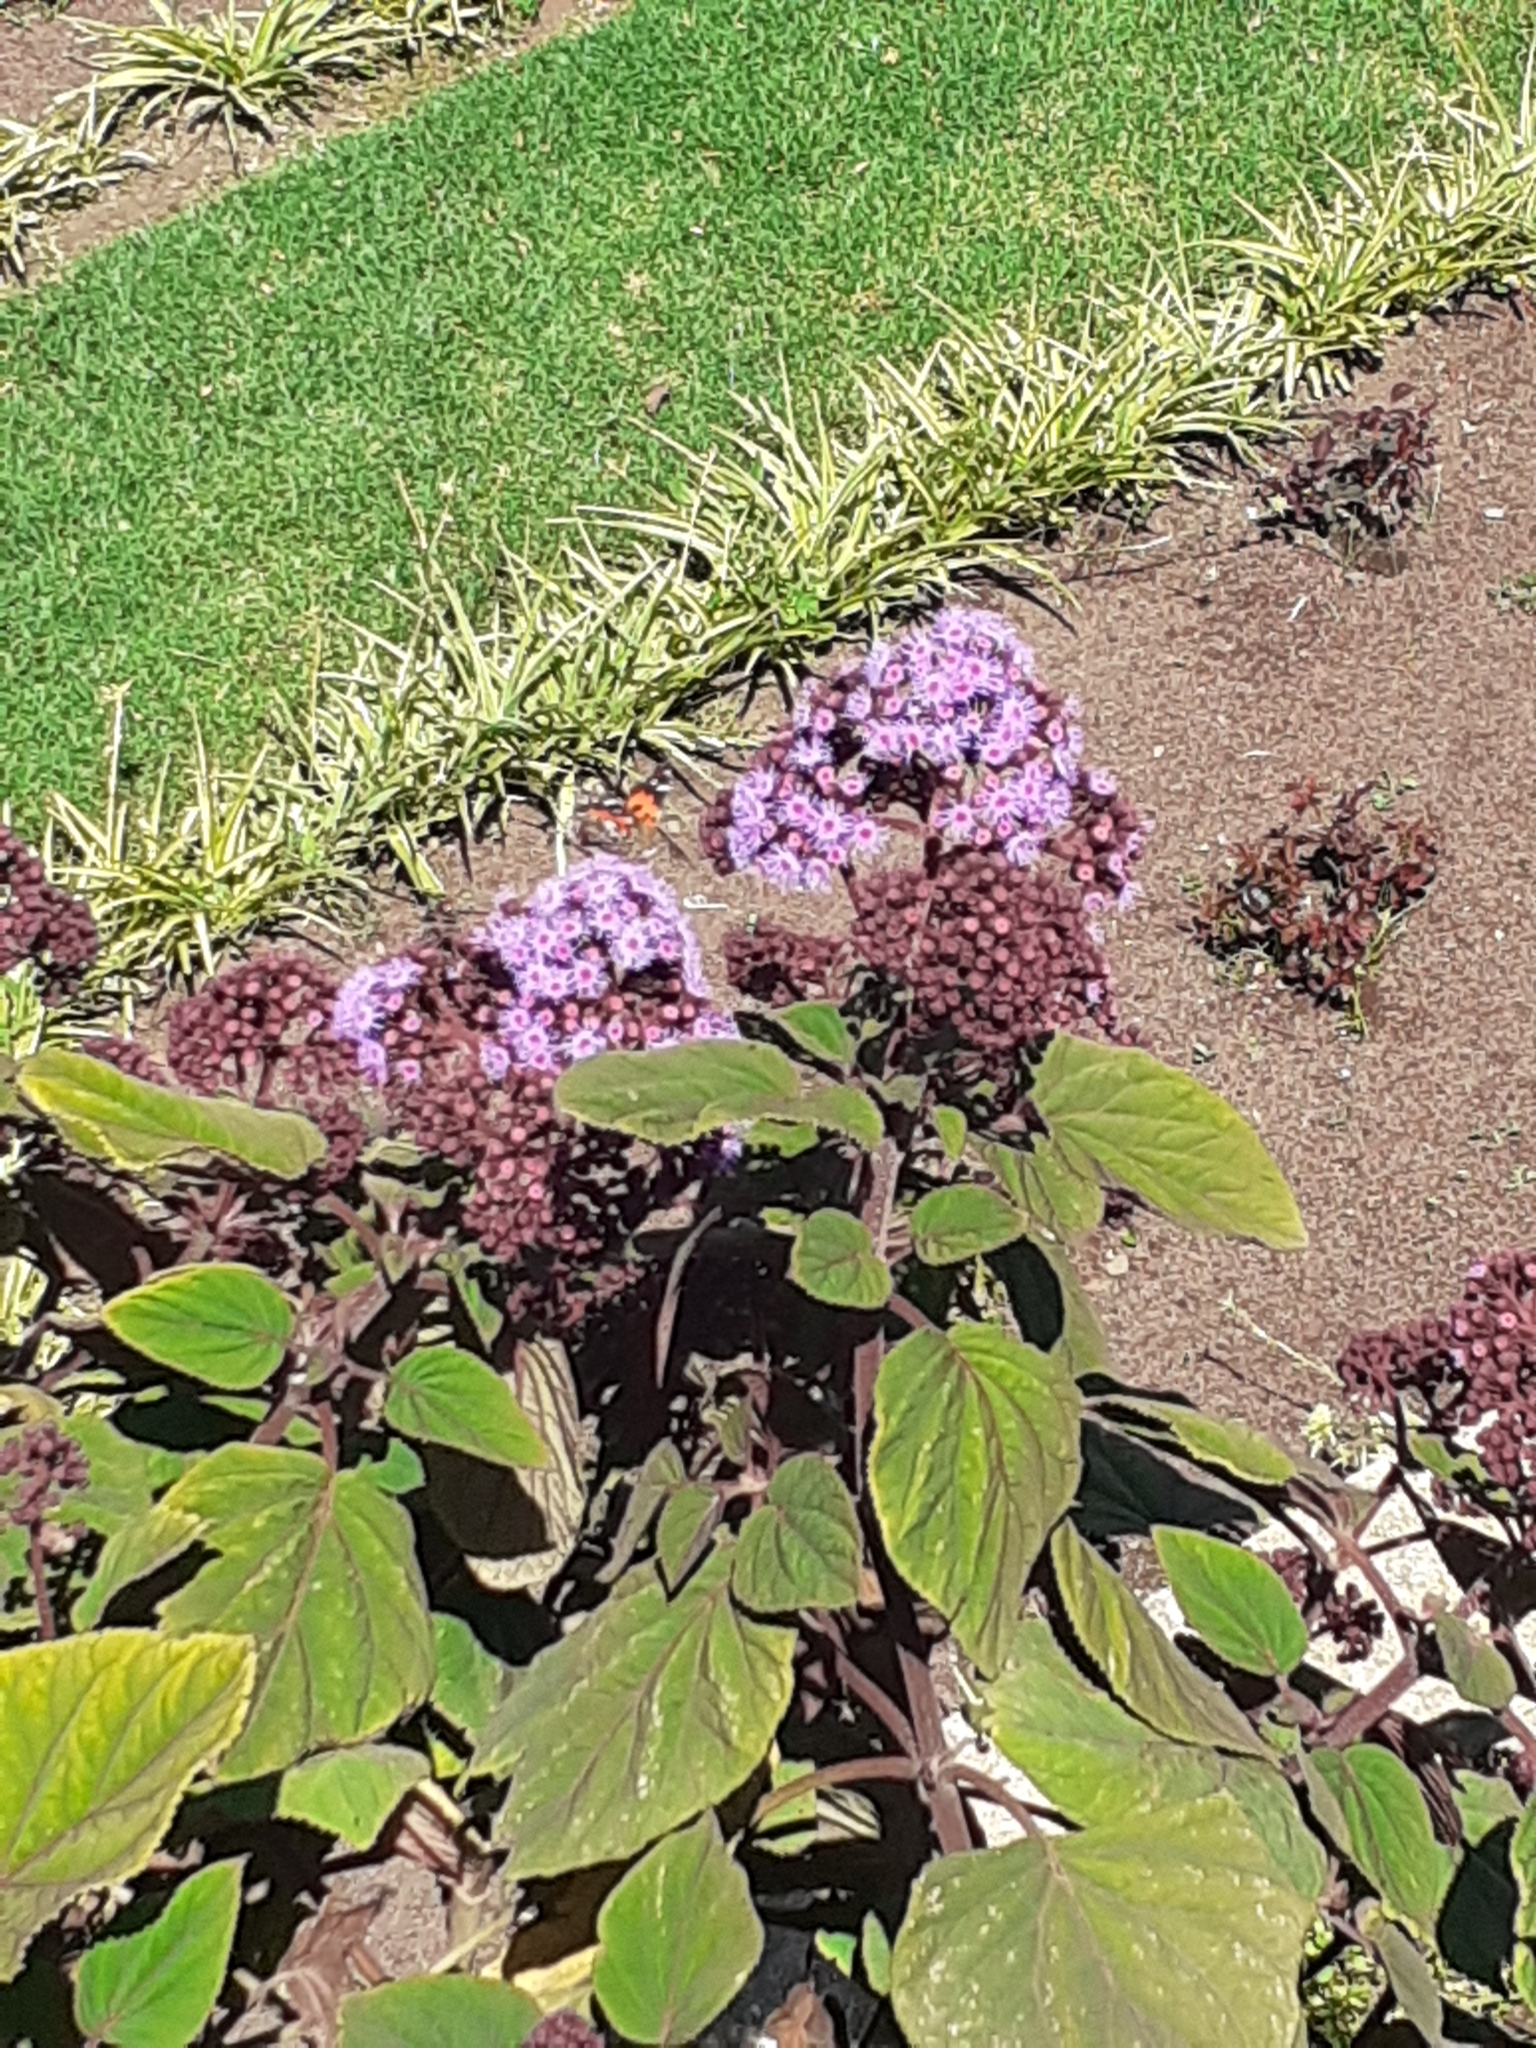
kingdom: Animalia
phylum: Arthropoda
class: Insecta
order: Lepidoptera
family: Nymphalidae
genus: Vanessa
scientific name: Vanessa vulcania
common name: Canary red admiral
